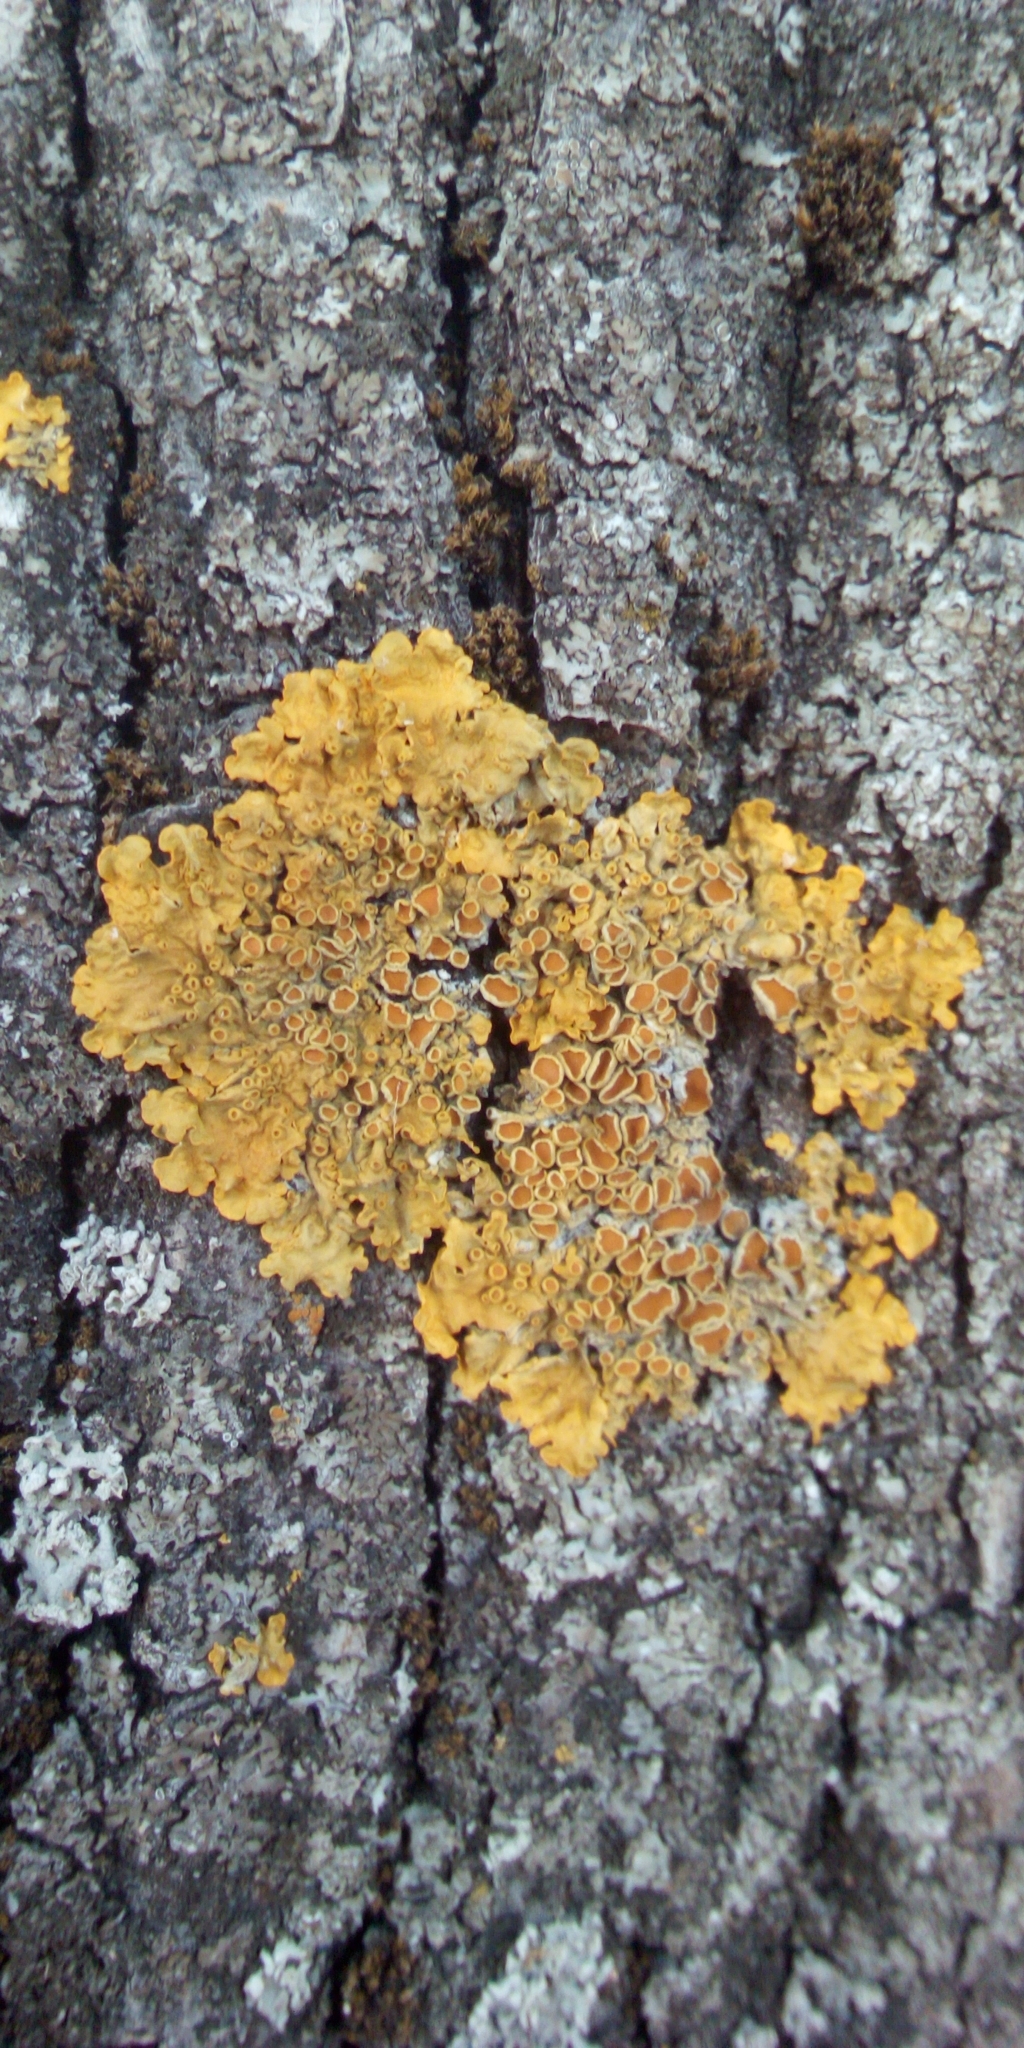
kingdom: Fungi
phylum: Ascomycota
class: Lecanoromycetes
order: Teloschistales
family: Teloschistaceae
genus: Xanthoria
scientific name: Xanthoria parietina
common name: Common orange lichen
